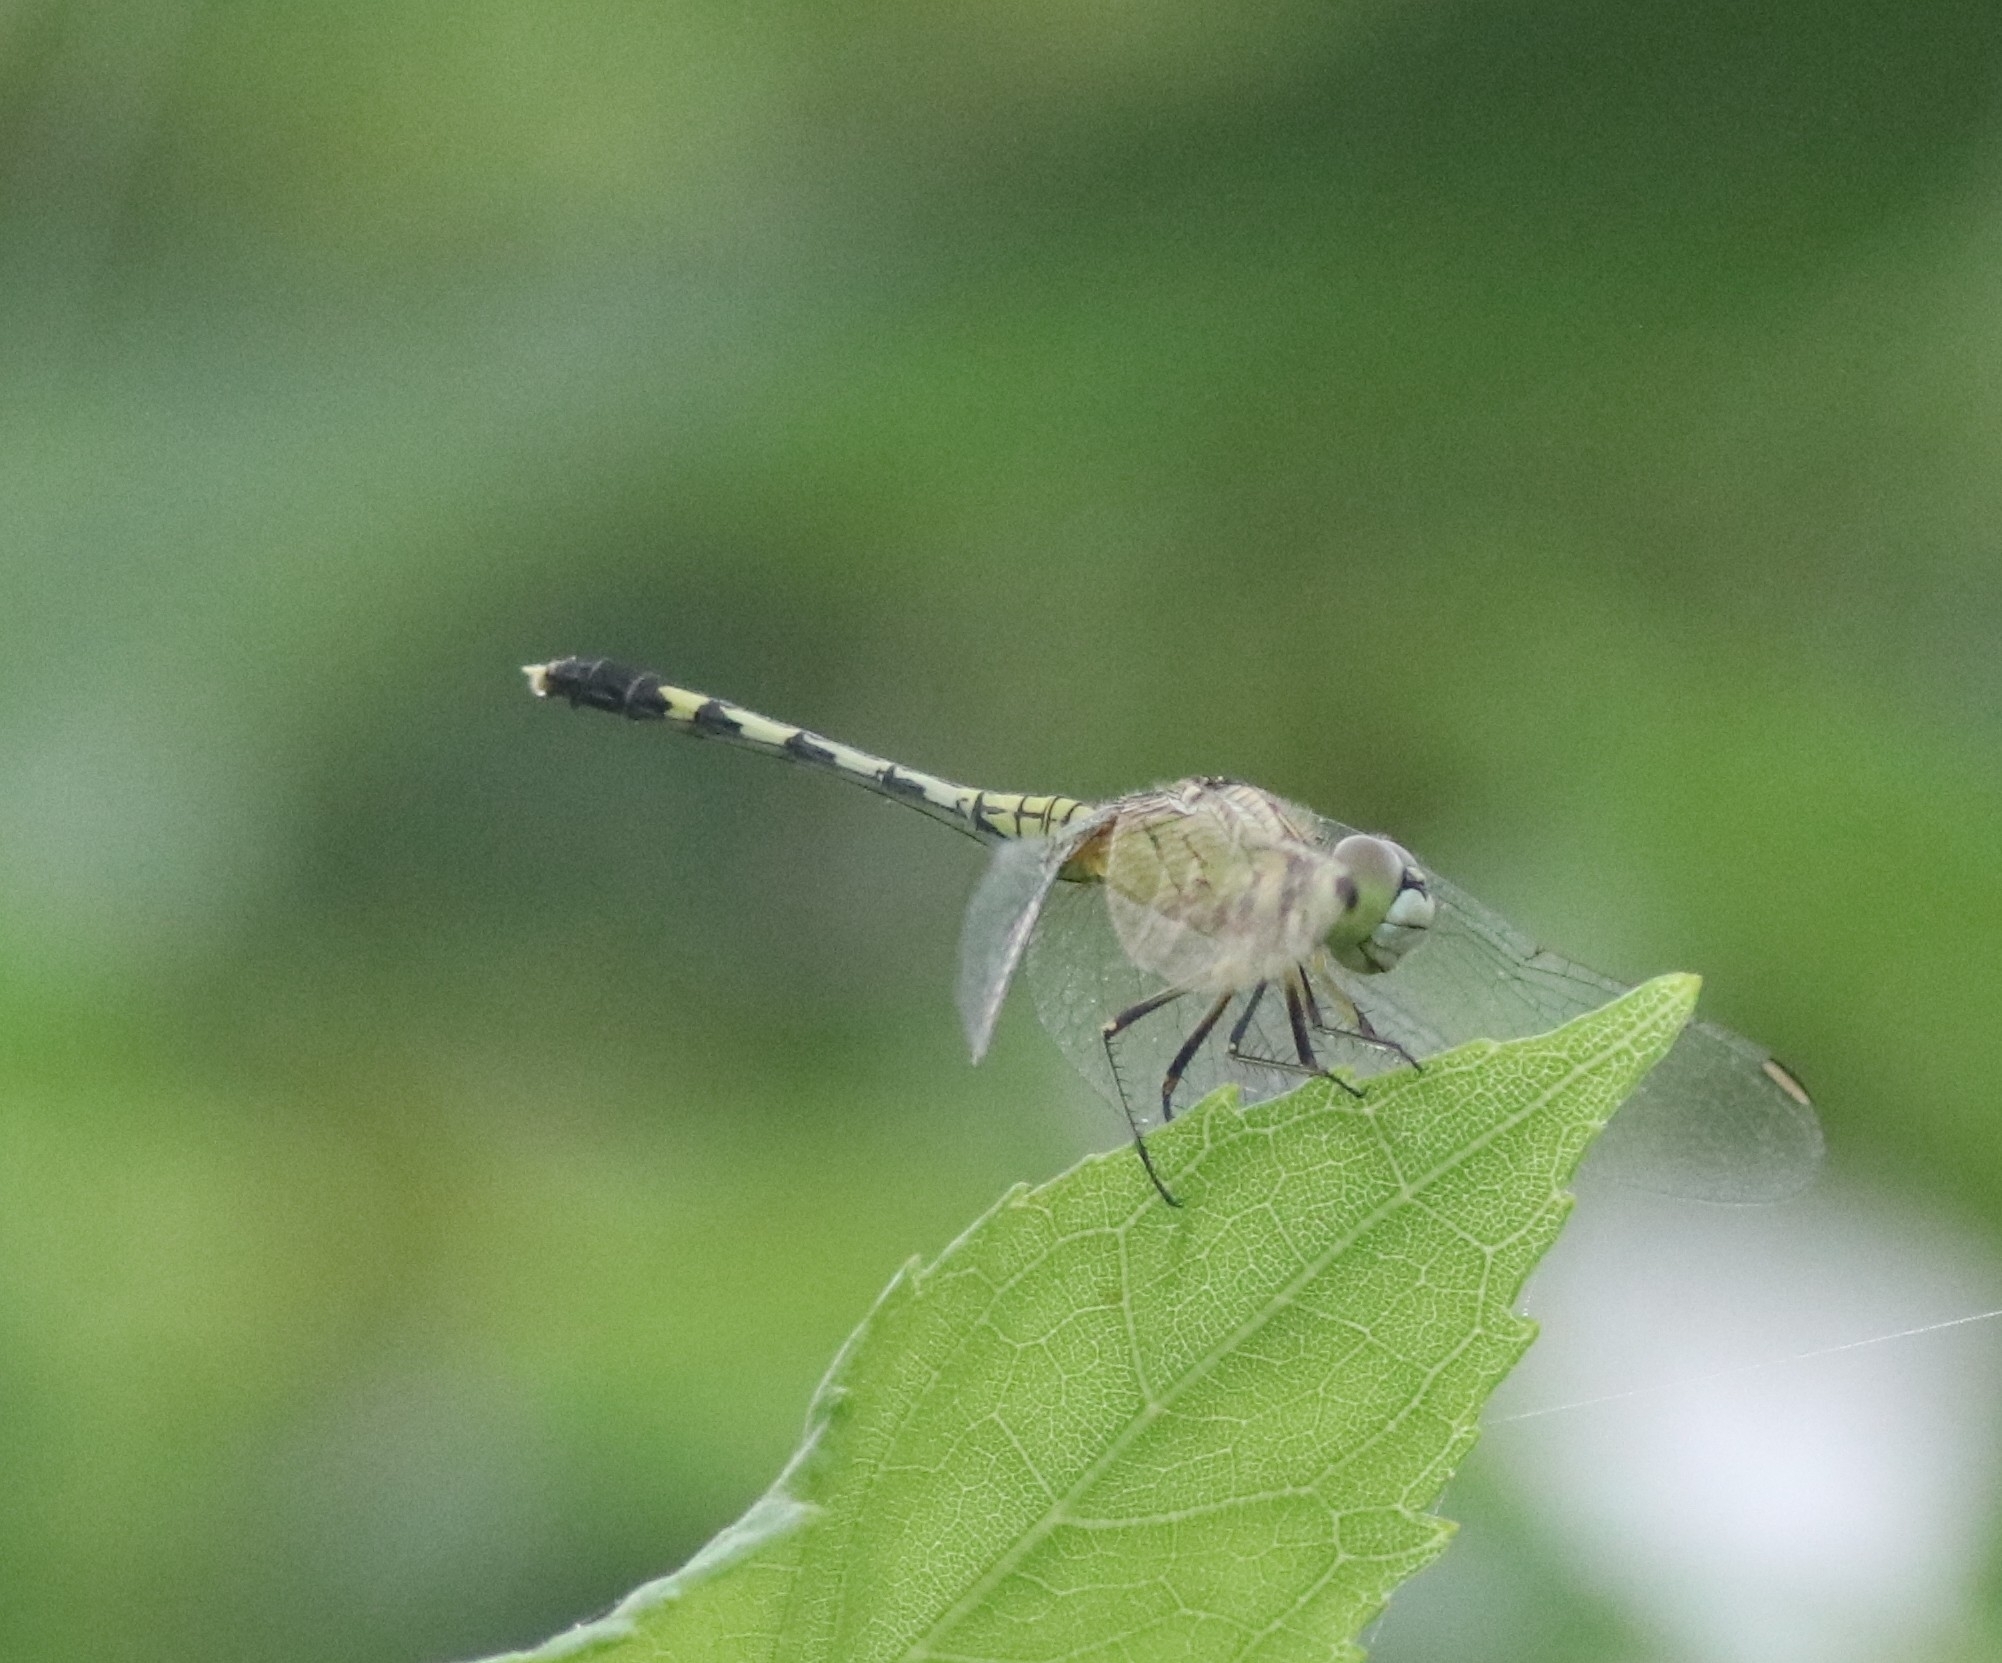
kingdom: Animalia
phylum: Arthropoda
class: Insecta
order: Odonata
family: Libellulidae
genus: Diplacodes
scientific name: Diplacodes trivialis
